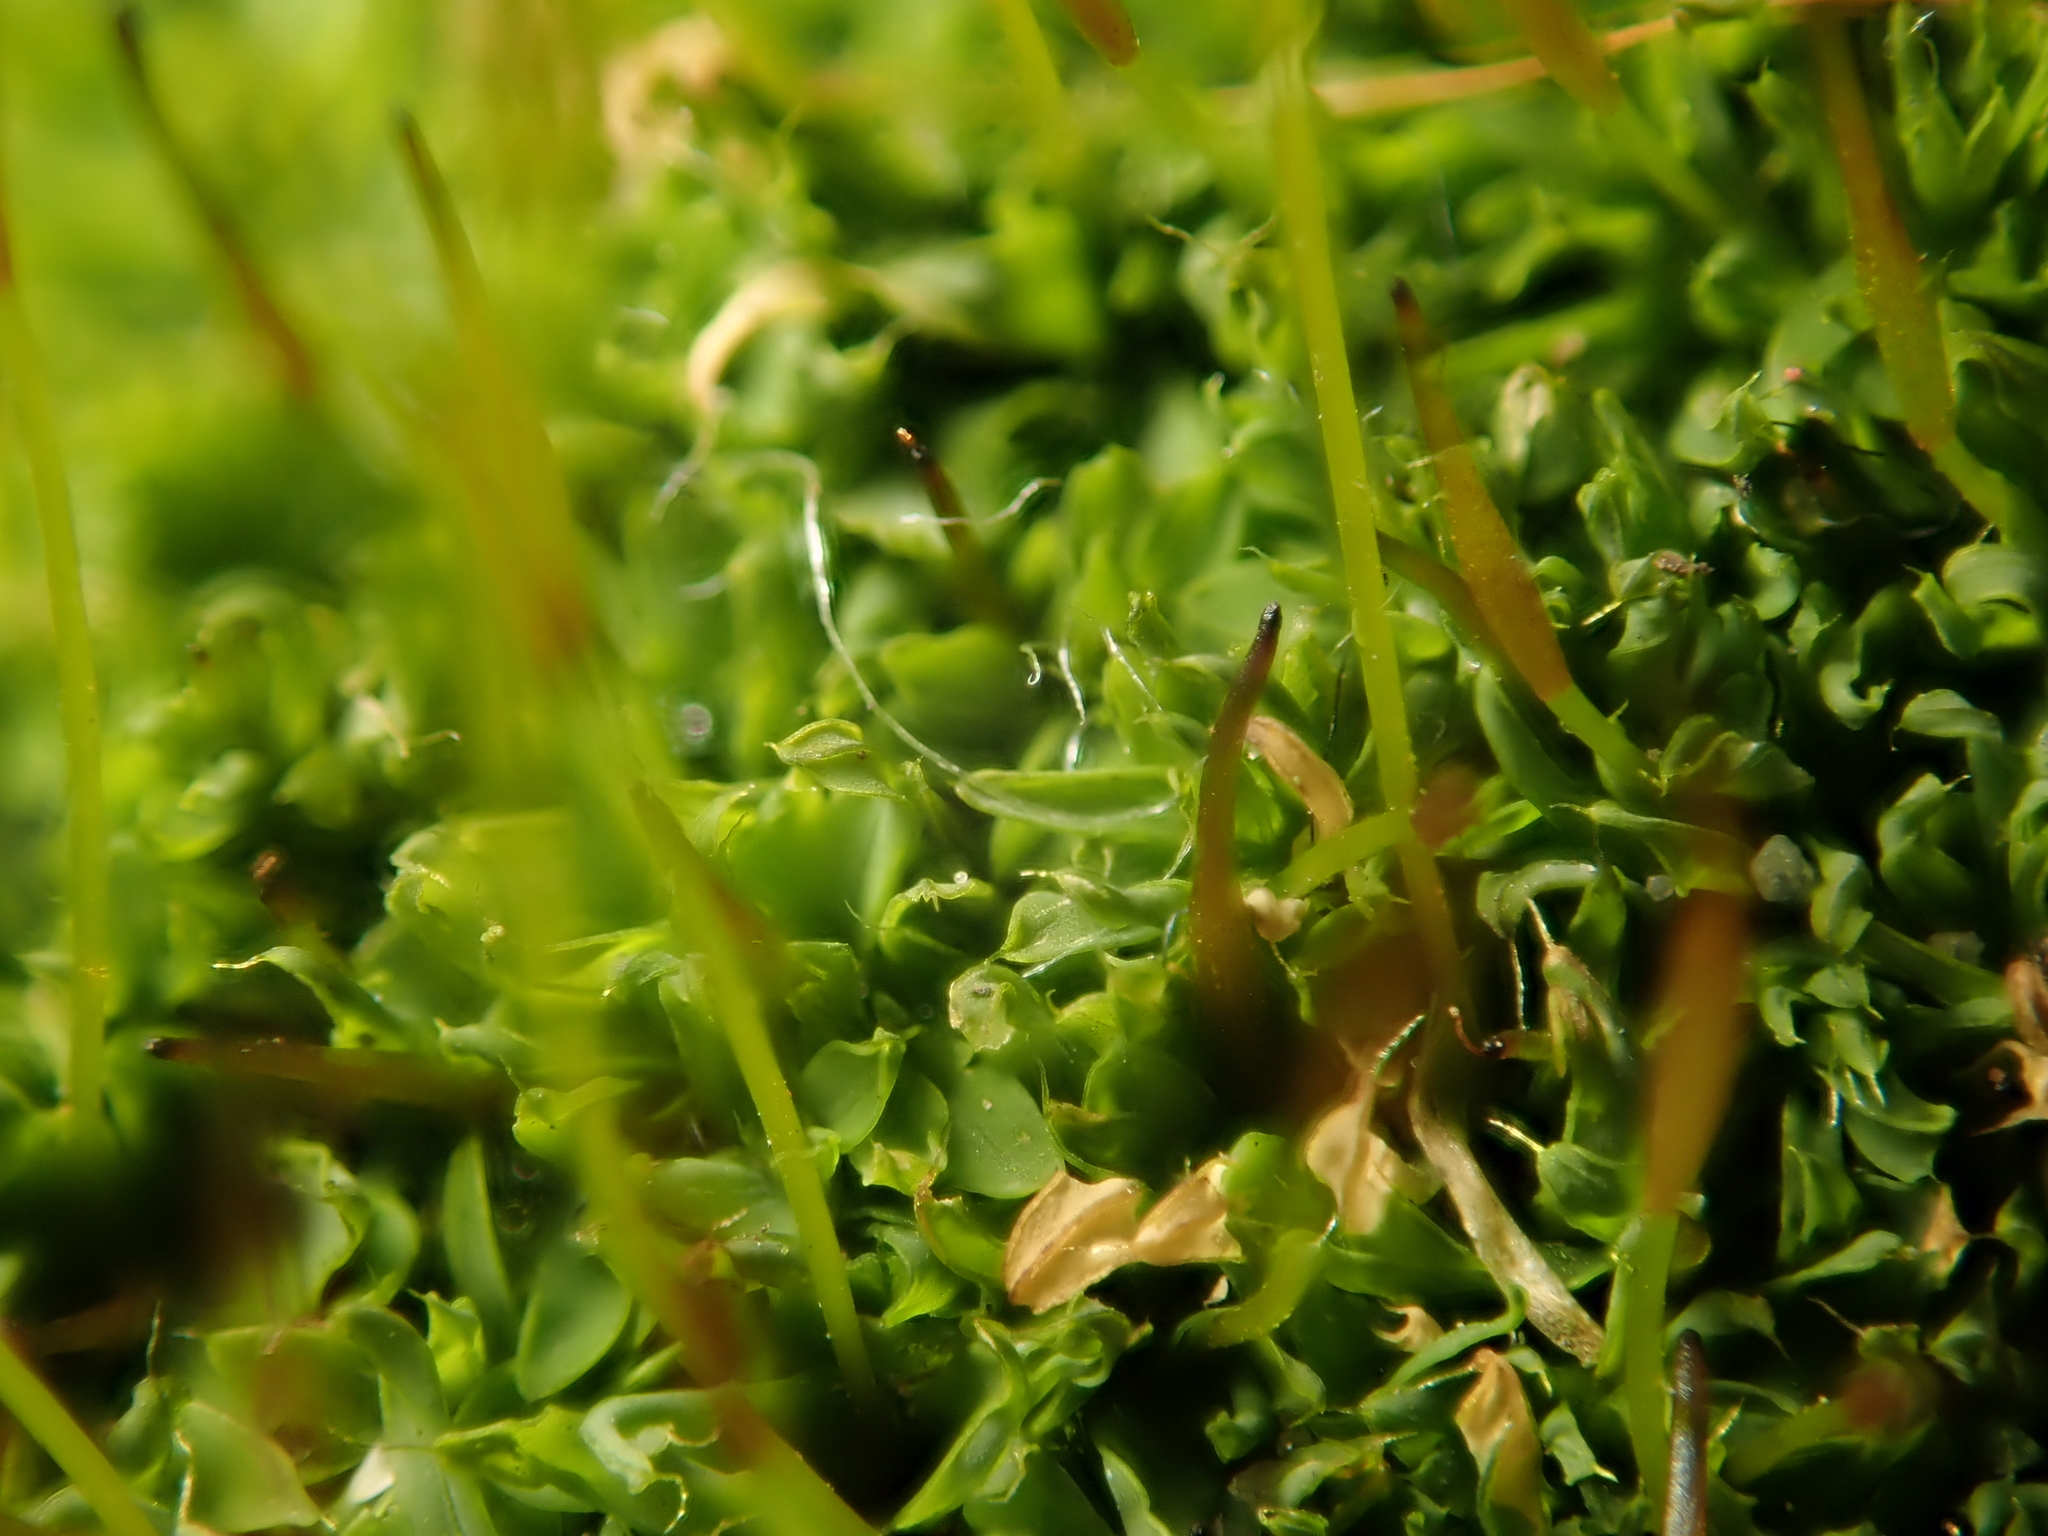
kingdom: Plantae
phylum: Bryophyta
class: Bryopsida
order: Pottiales
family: Pottiaceae
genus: Tortula
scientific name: Tortula muralis
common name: Wall screw-moss
